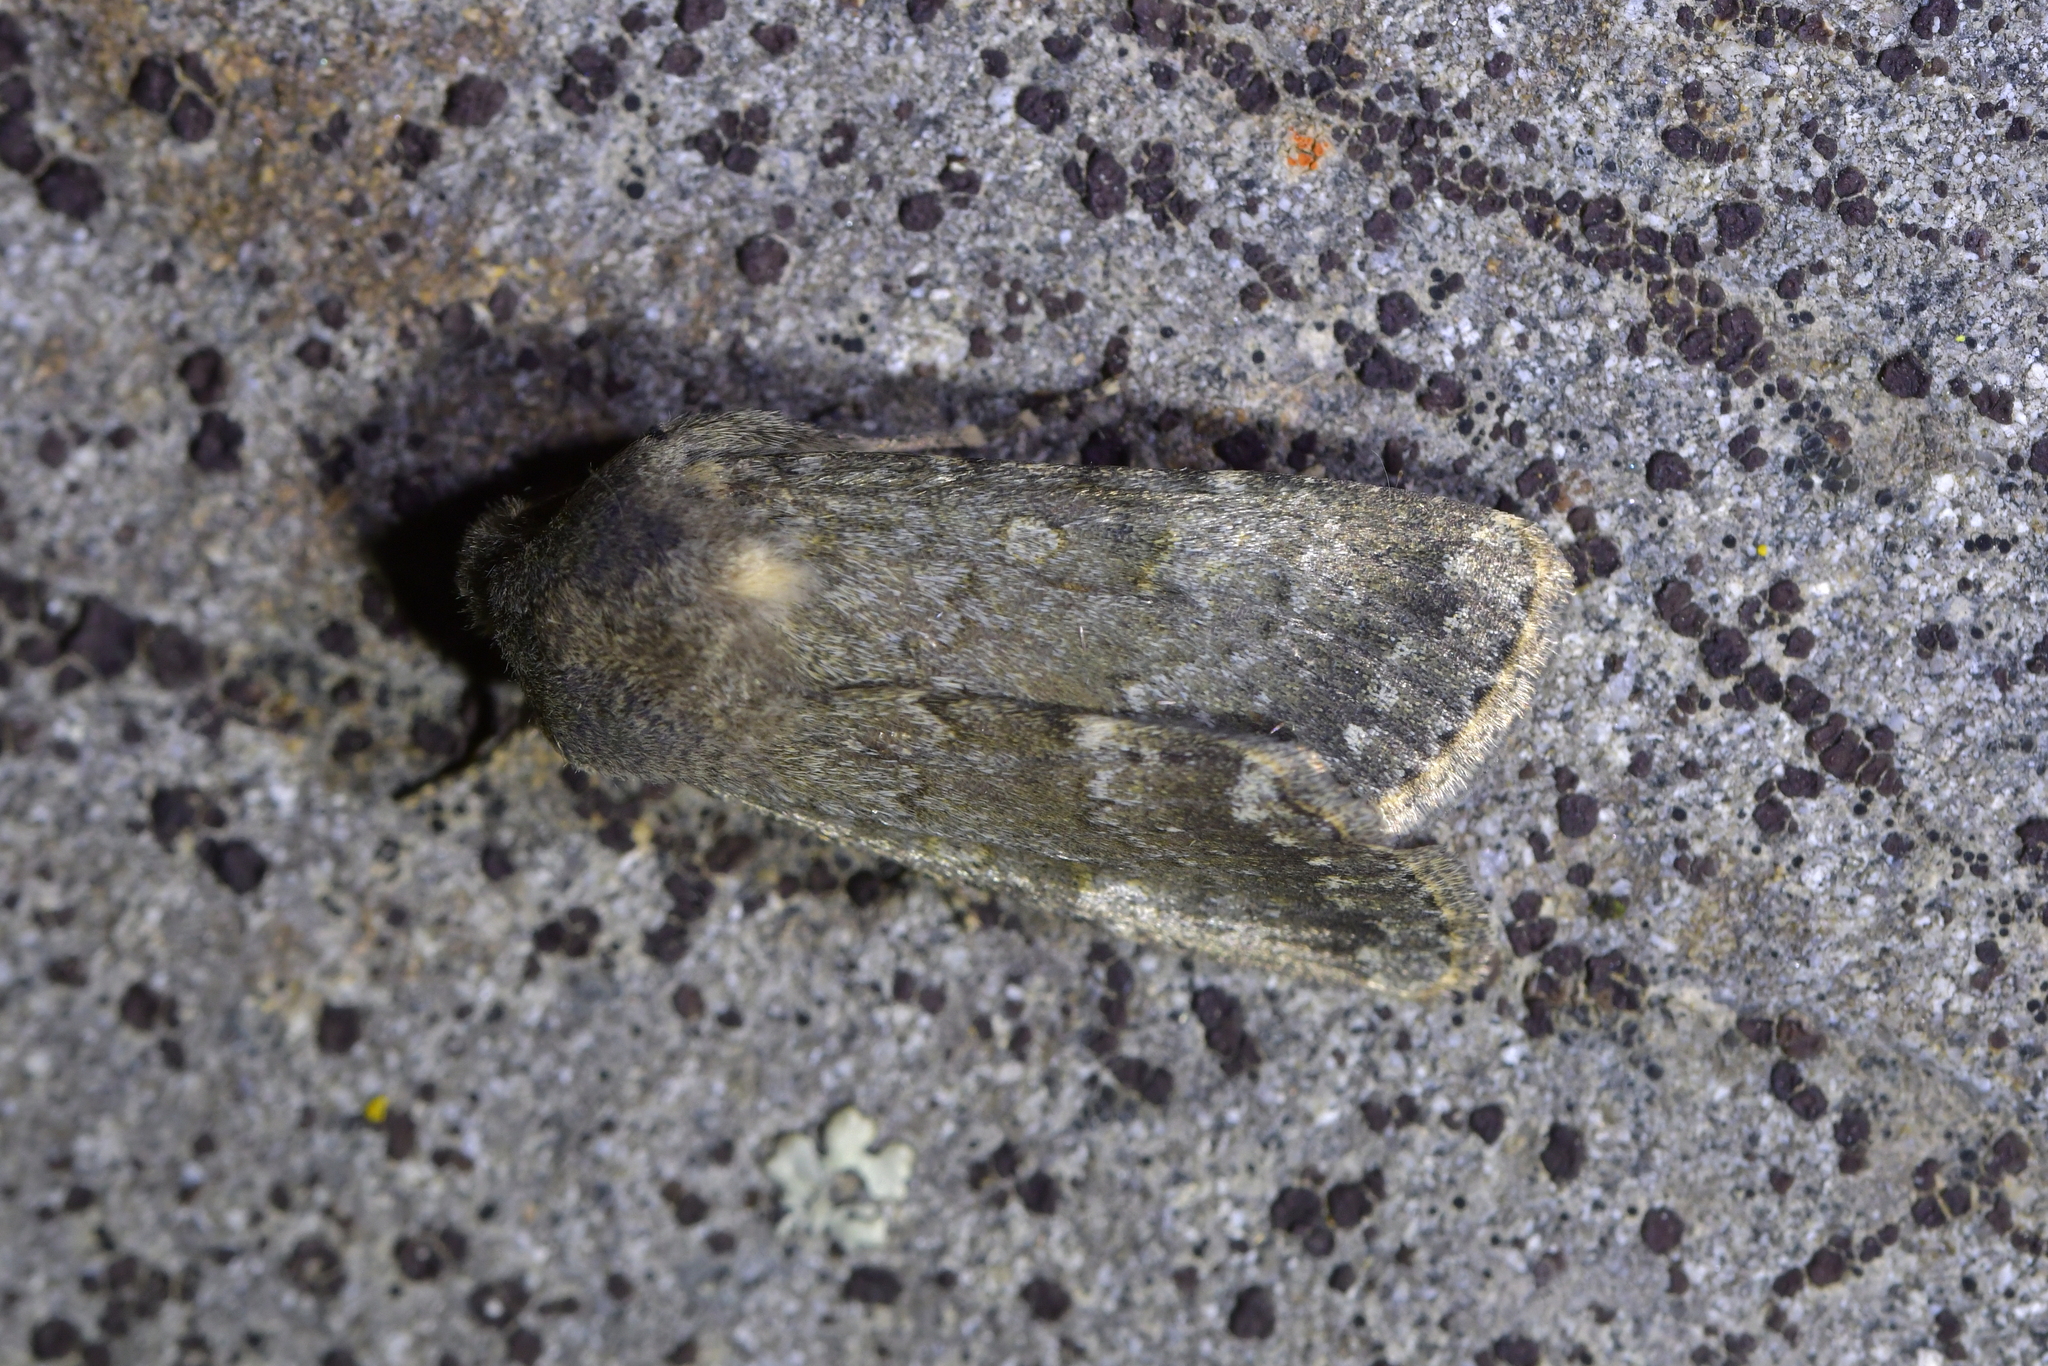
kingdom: Animalia
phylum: Arthropoda
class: Insecta
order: Lepidoptera
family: Noctuidae
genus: Ichneutica
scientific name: Ichneutica moderata
